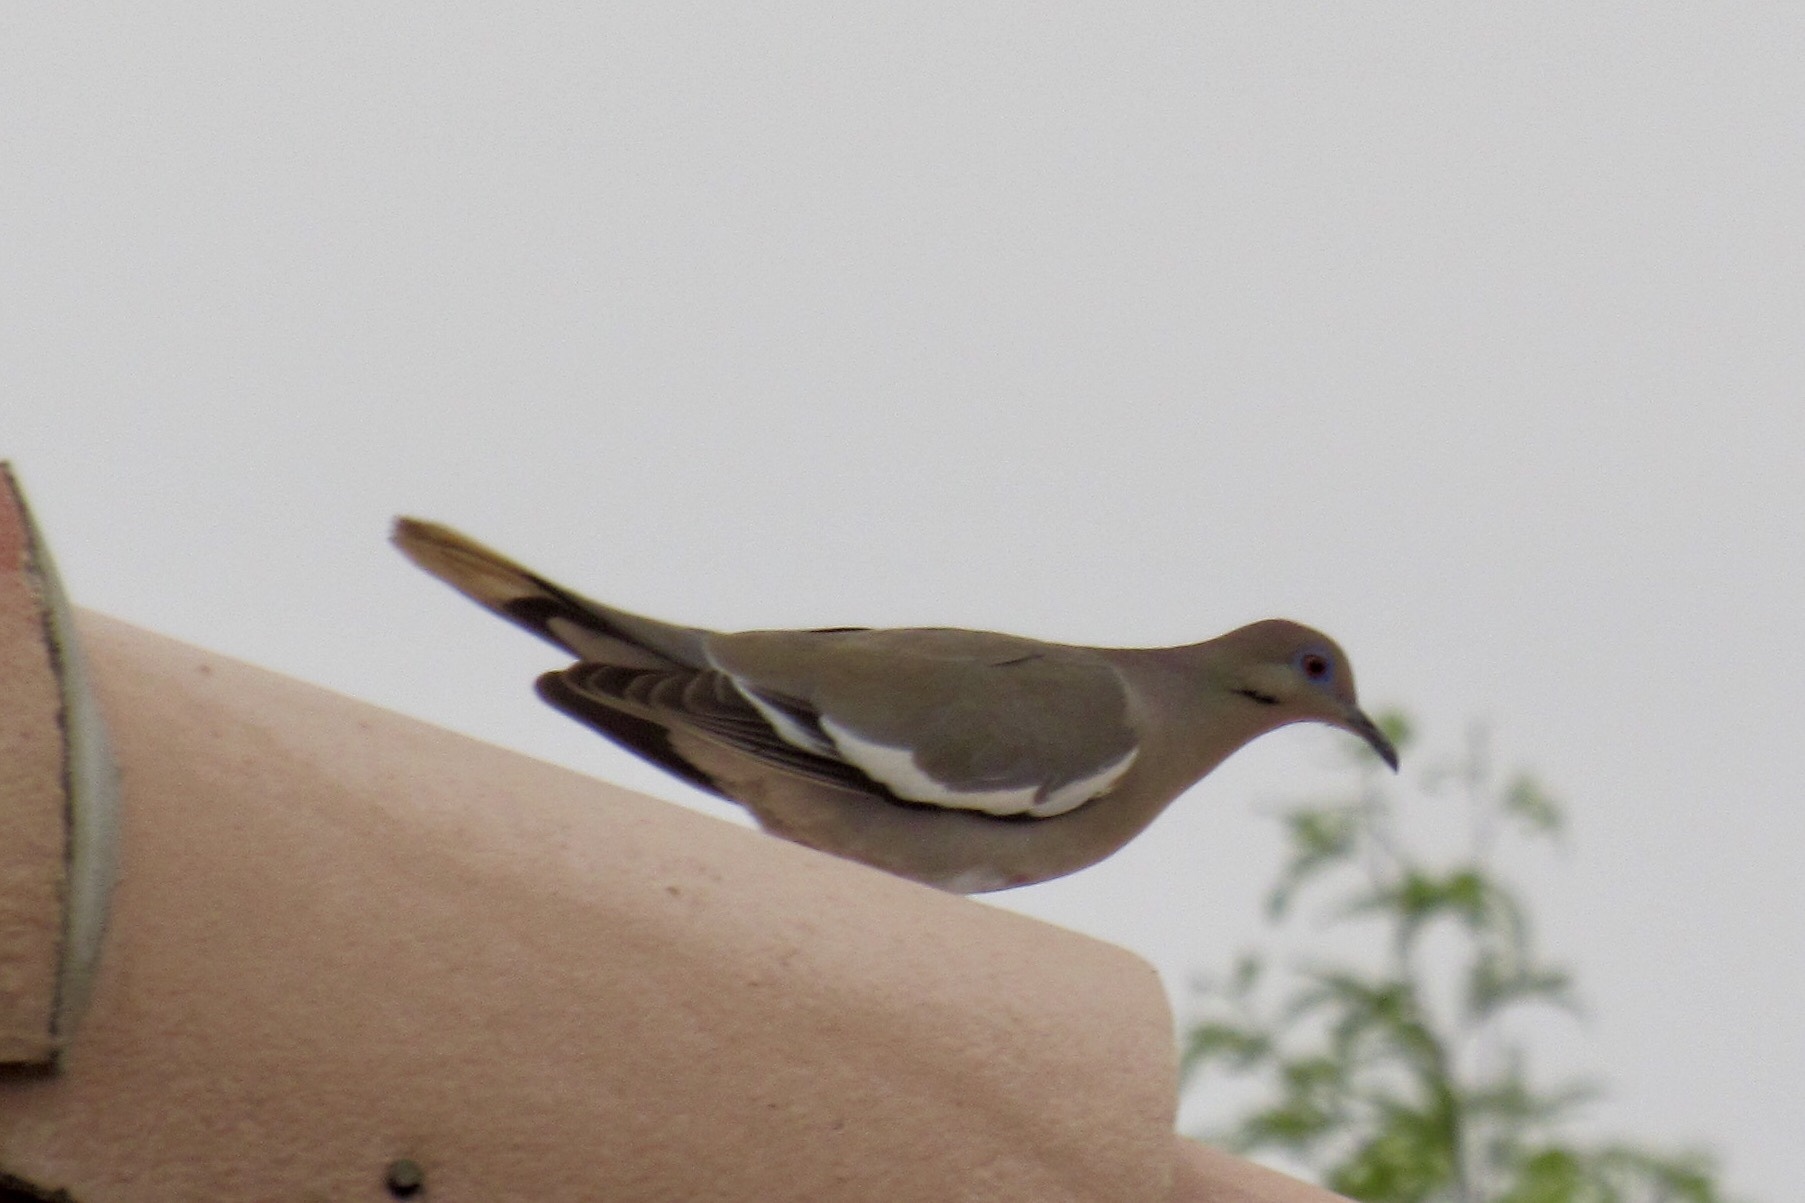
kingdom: Animalia
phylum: Chordata
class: Aves
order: Columbiformes
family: Columbidae
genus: Zenaida
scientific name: Zenaida asiatica
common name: White-winged dove
